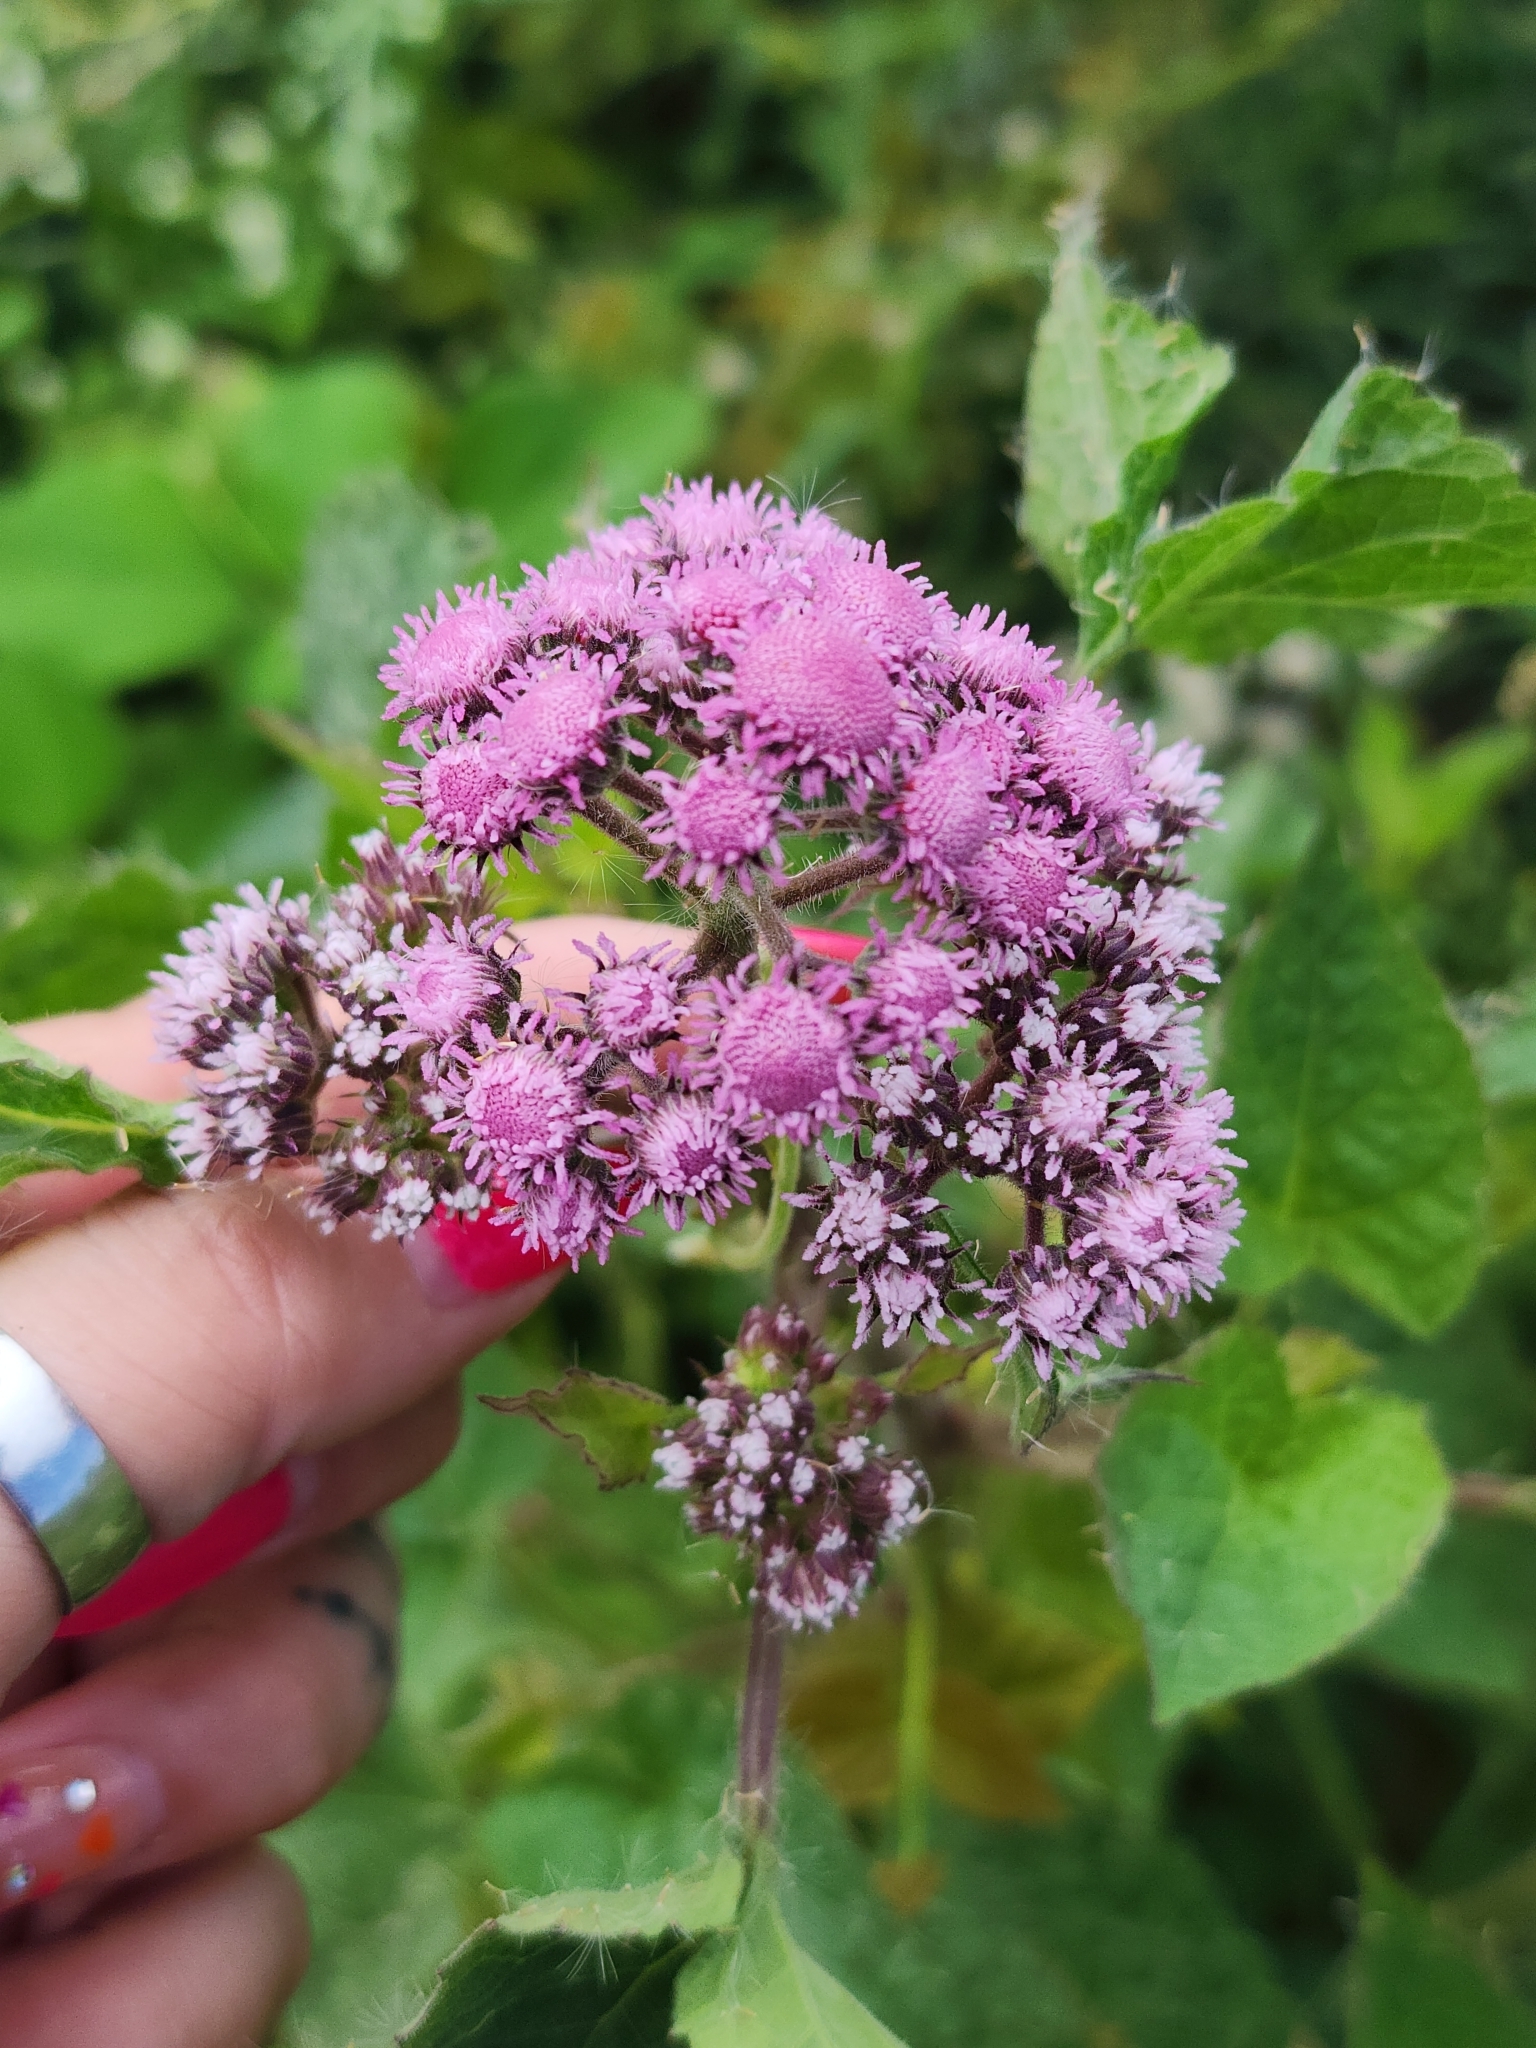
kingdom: Plantae
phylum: Tracheophyta
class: Magnoliopsida
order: Asterales
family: Asteraceae
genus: Urolepis
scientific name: Urolepis hecatantha
